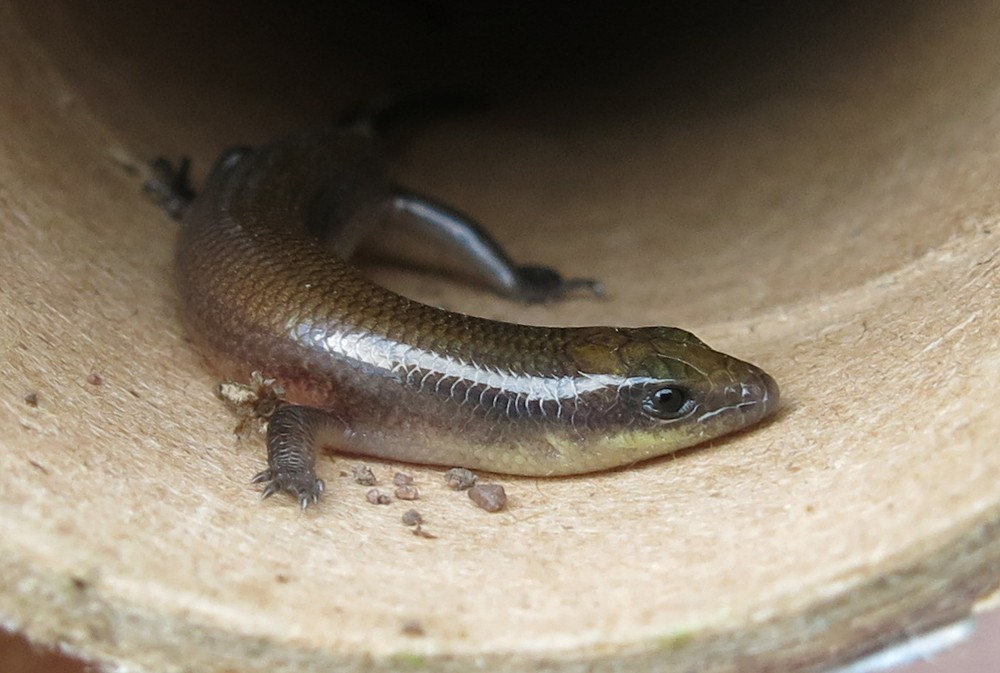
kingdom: Animalia
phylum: Chordata
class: Squamata
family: Scincidae
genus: Mochlus
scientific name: Mochlus sundevallii
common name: Peters' eyelid skink
